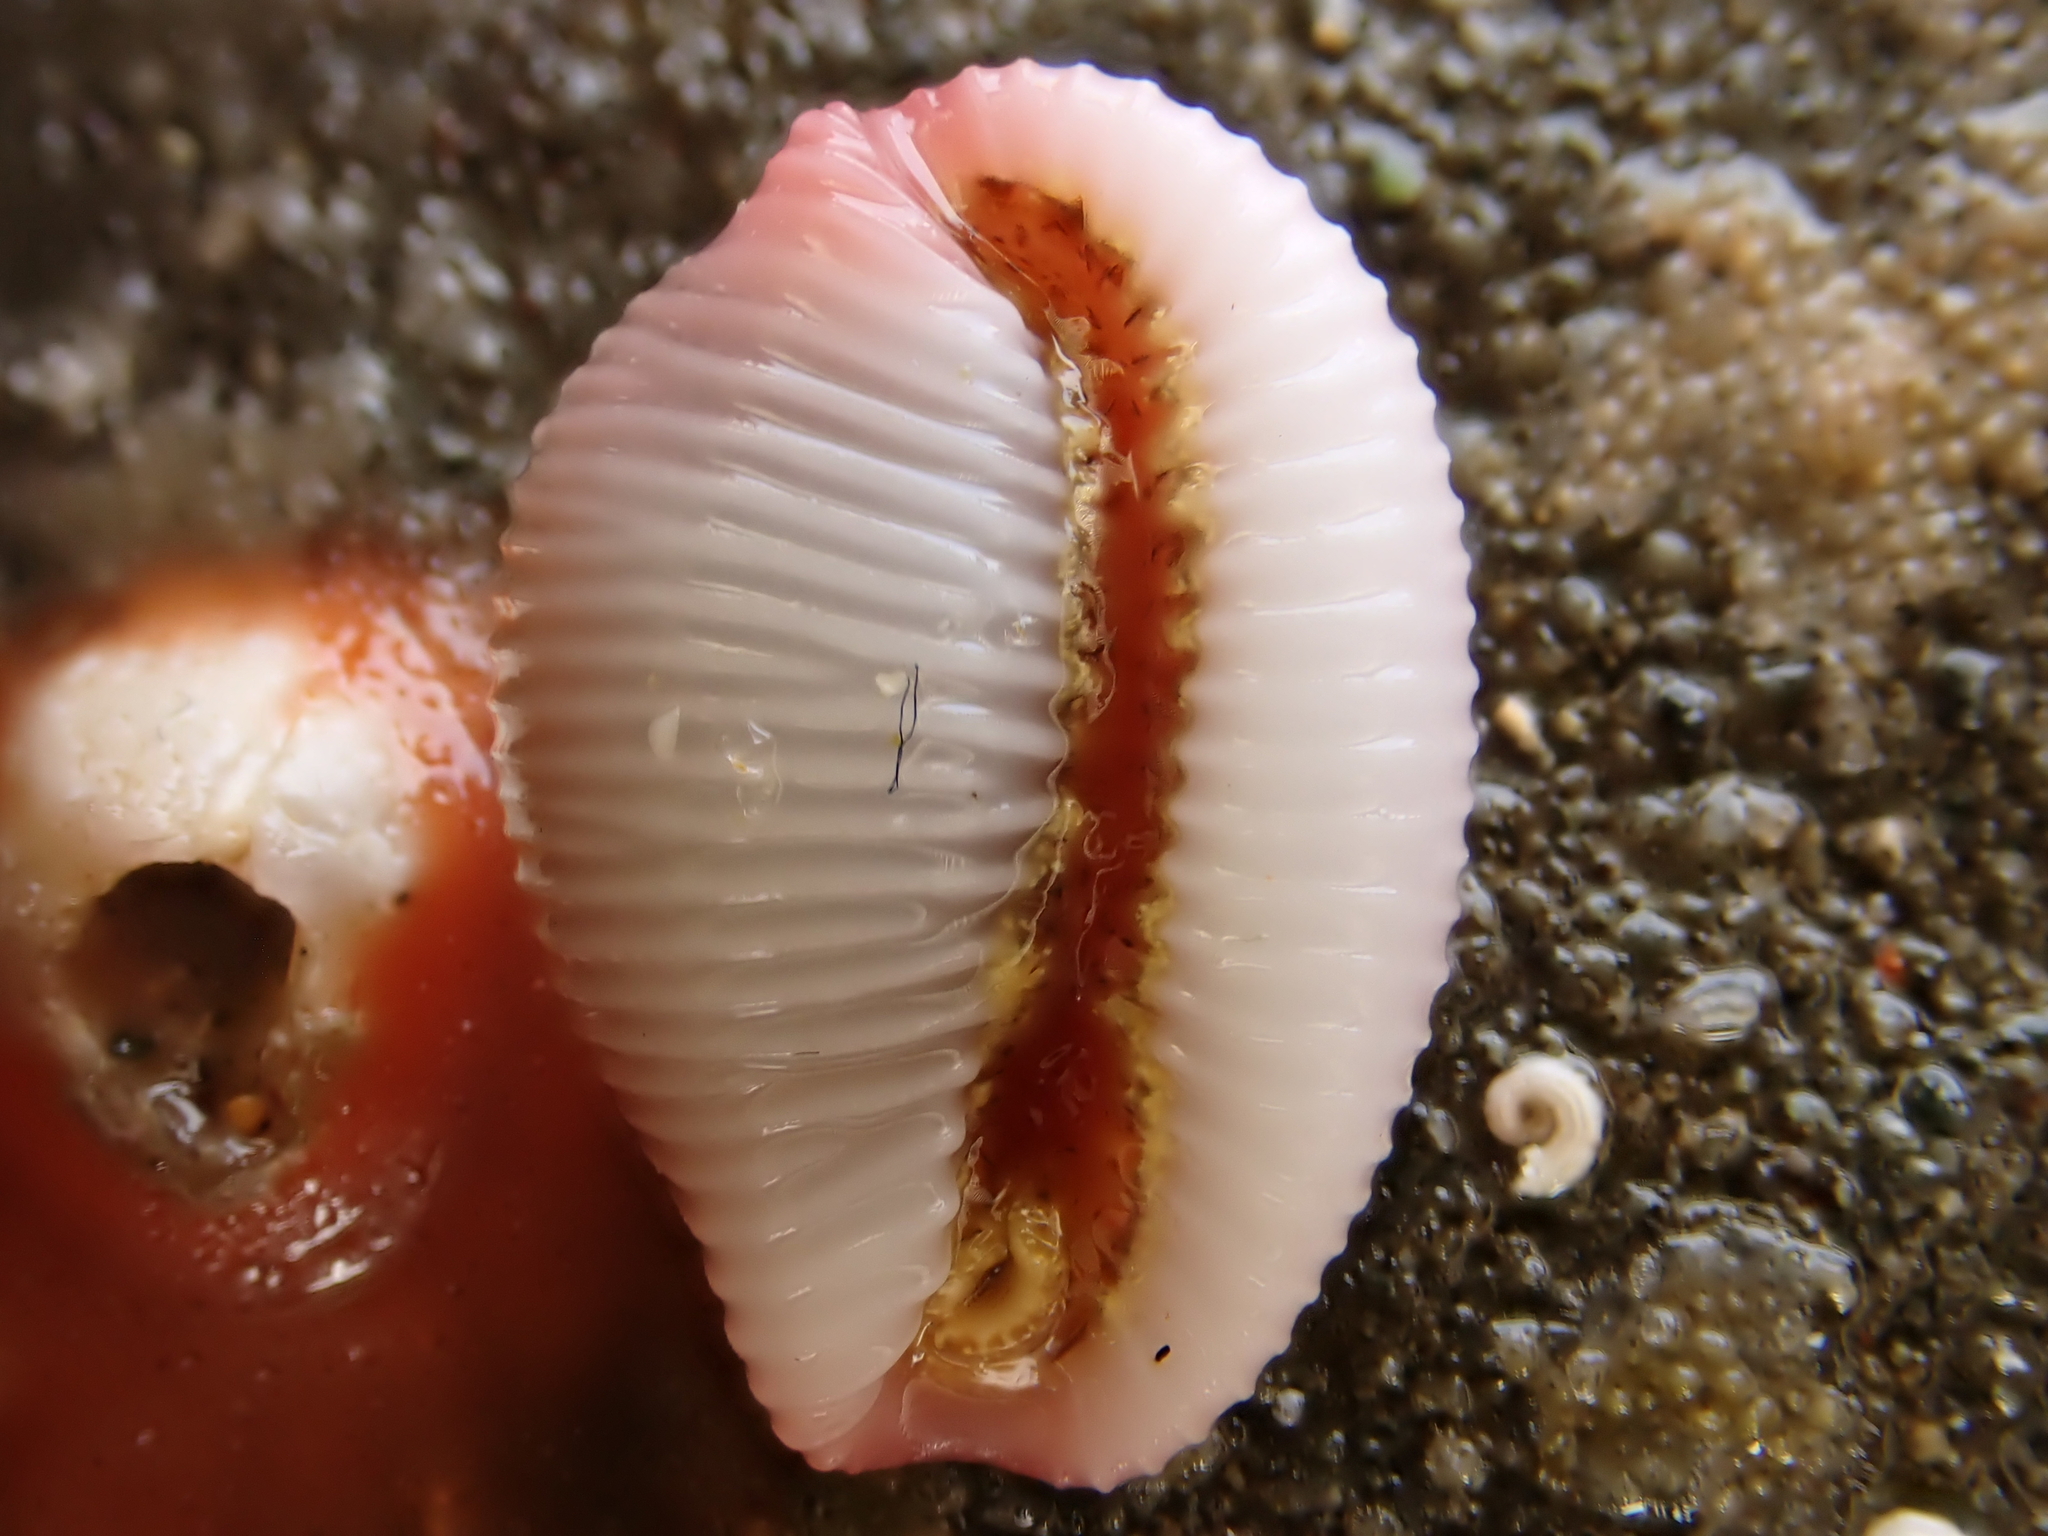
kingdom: Animalia
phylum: Mollusca
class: Gastropoda
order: Littorinimorpha
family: Triviidae
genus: Ellatrivia
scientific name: Ellatrivia merces
